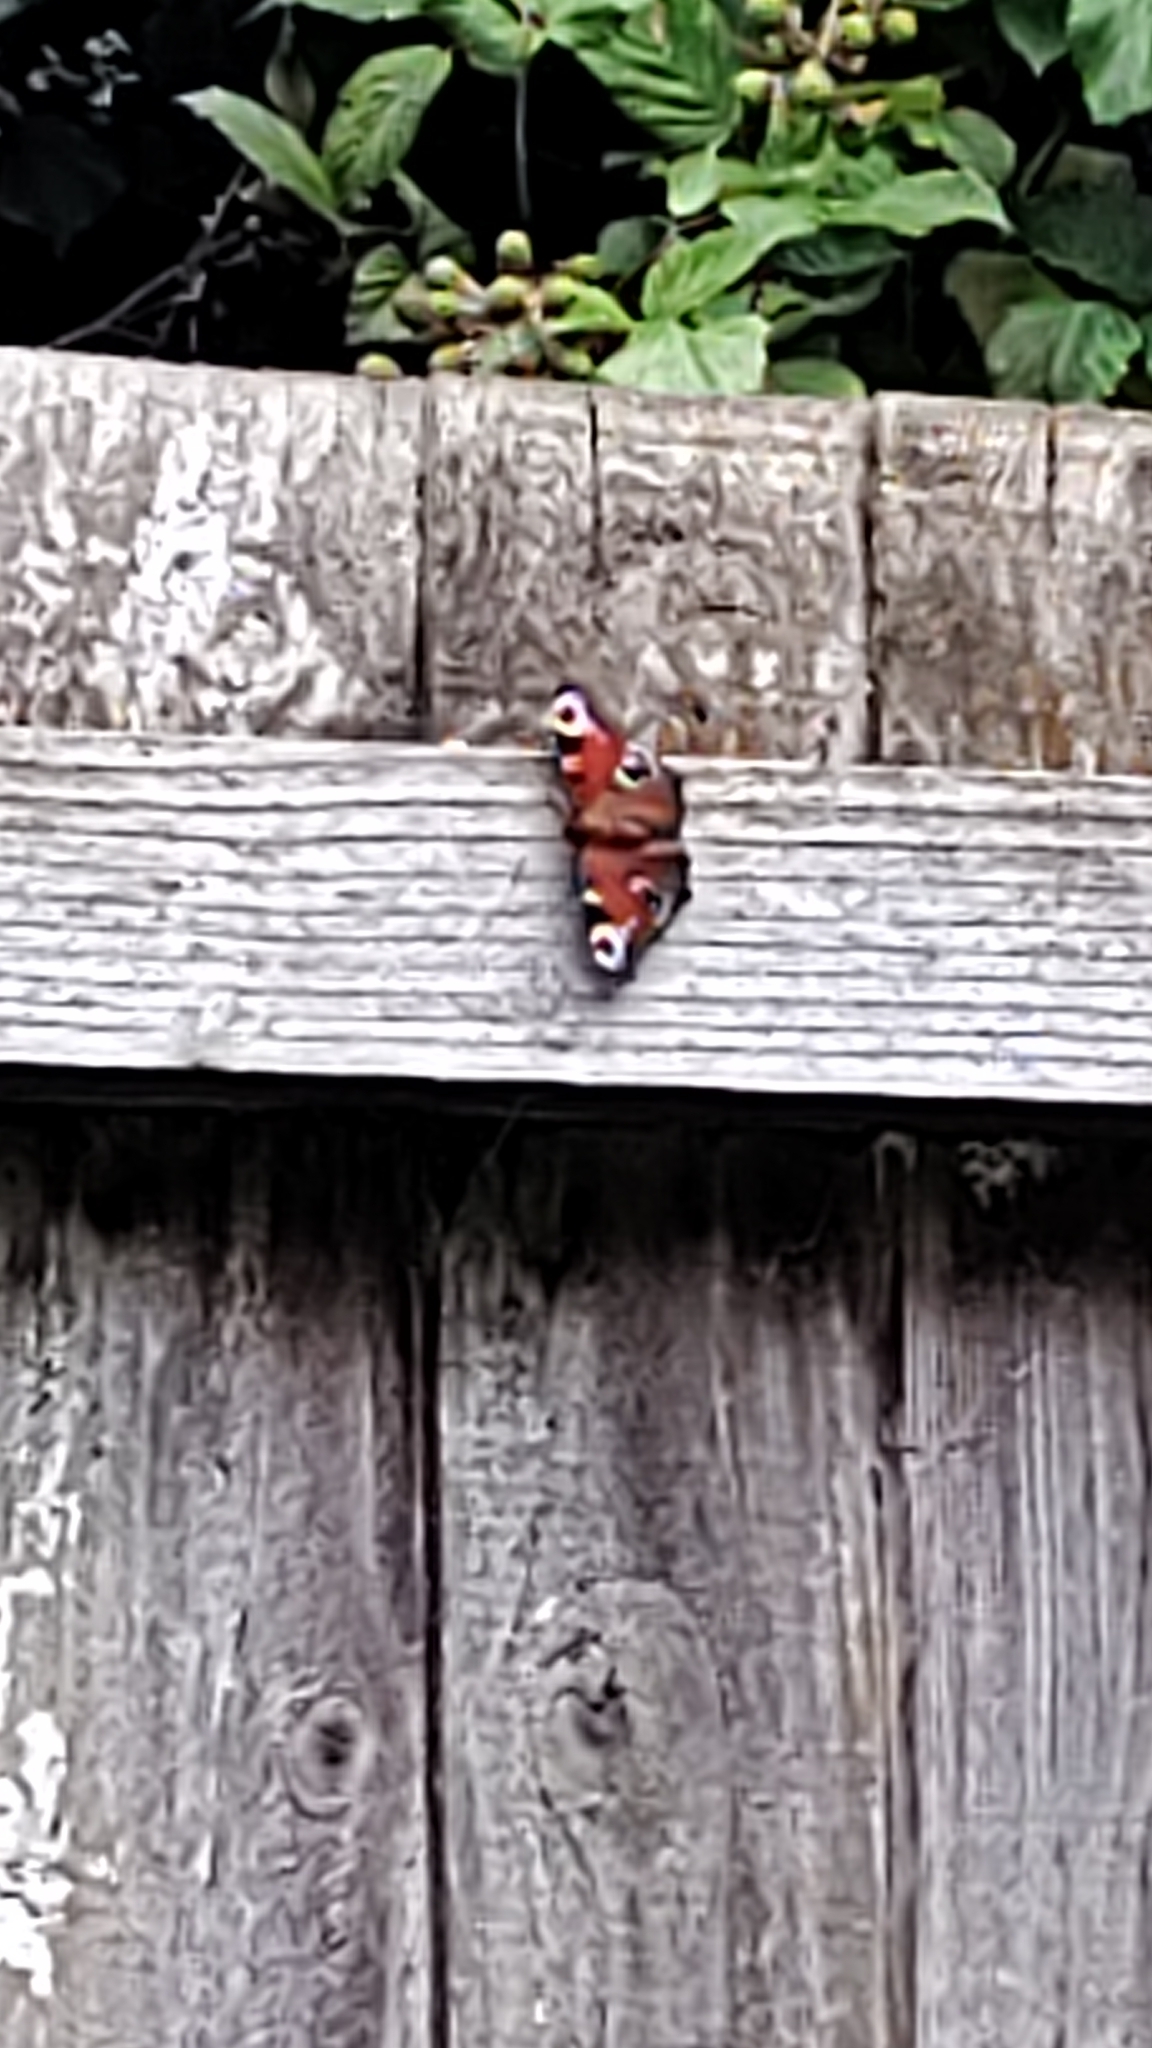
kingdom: Animalia
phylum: Arthropoda
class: Insecta
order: Lepidoptera
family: Nymphalidae
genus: Aglais
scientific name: Aglais io
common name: Peacock
